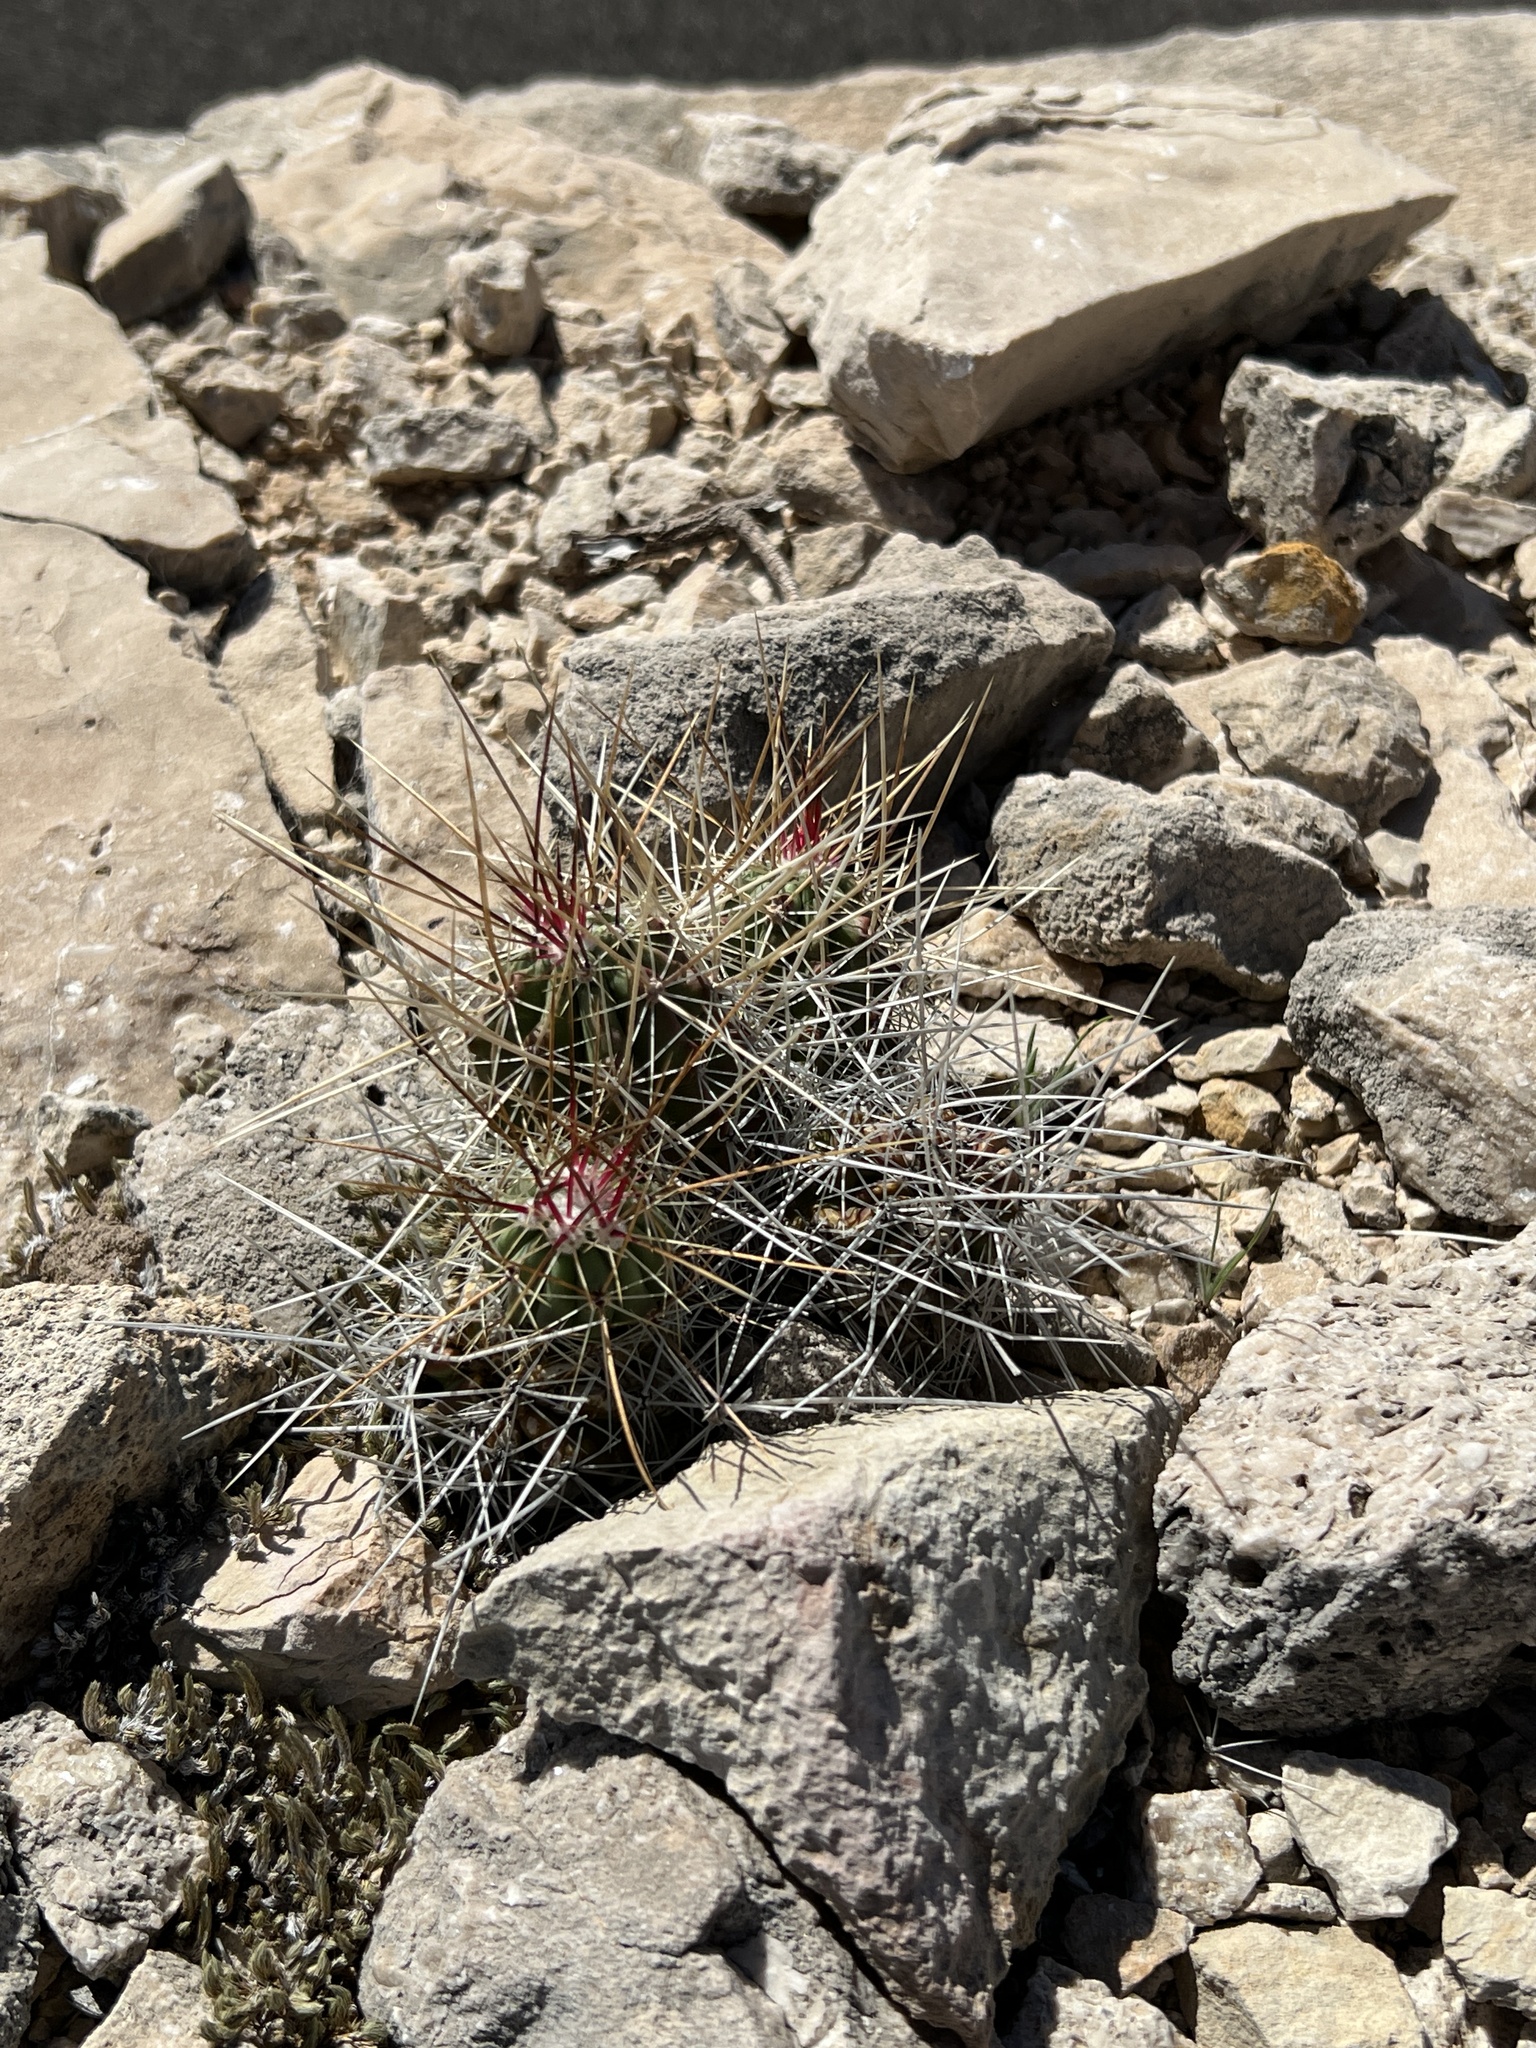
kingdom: Plantae
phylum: Tracheophyta
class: Magnoliopsida
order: Caryophyllales
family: Cactaceae
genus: Echinocereus
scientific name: Echinocereus stramineus
